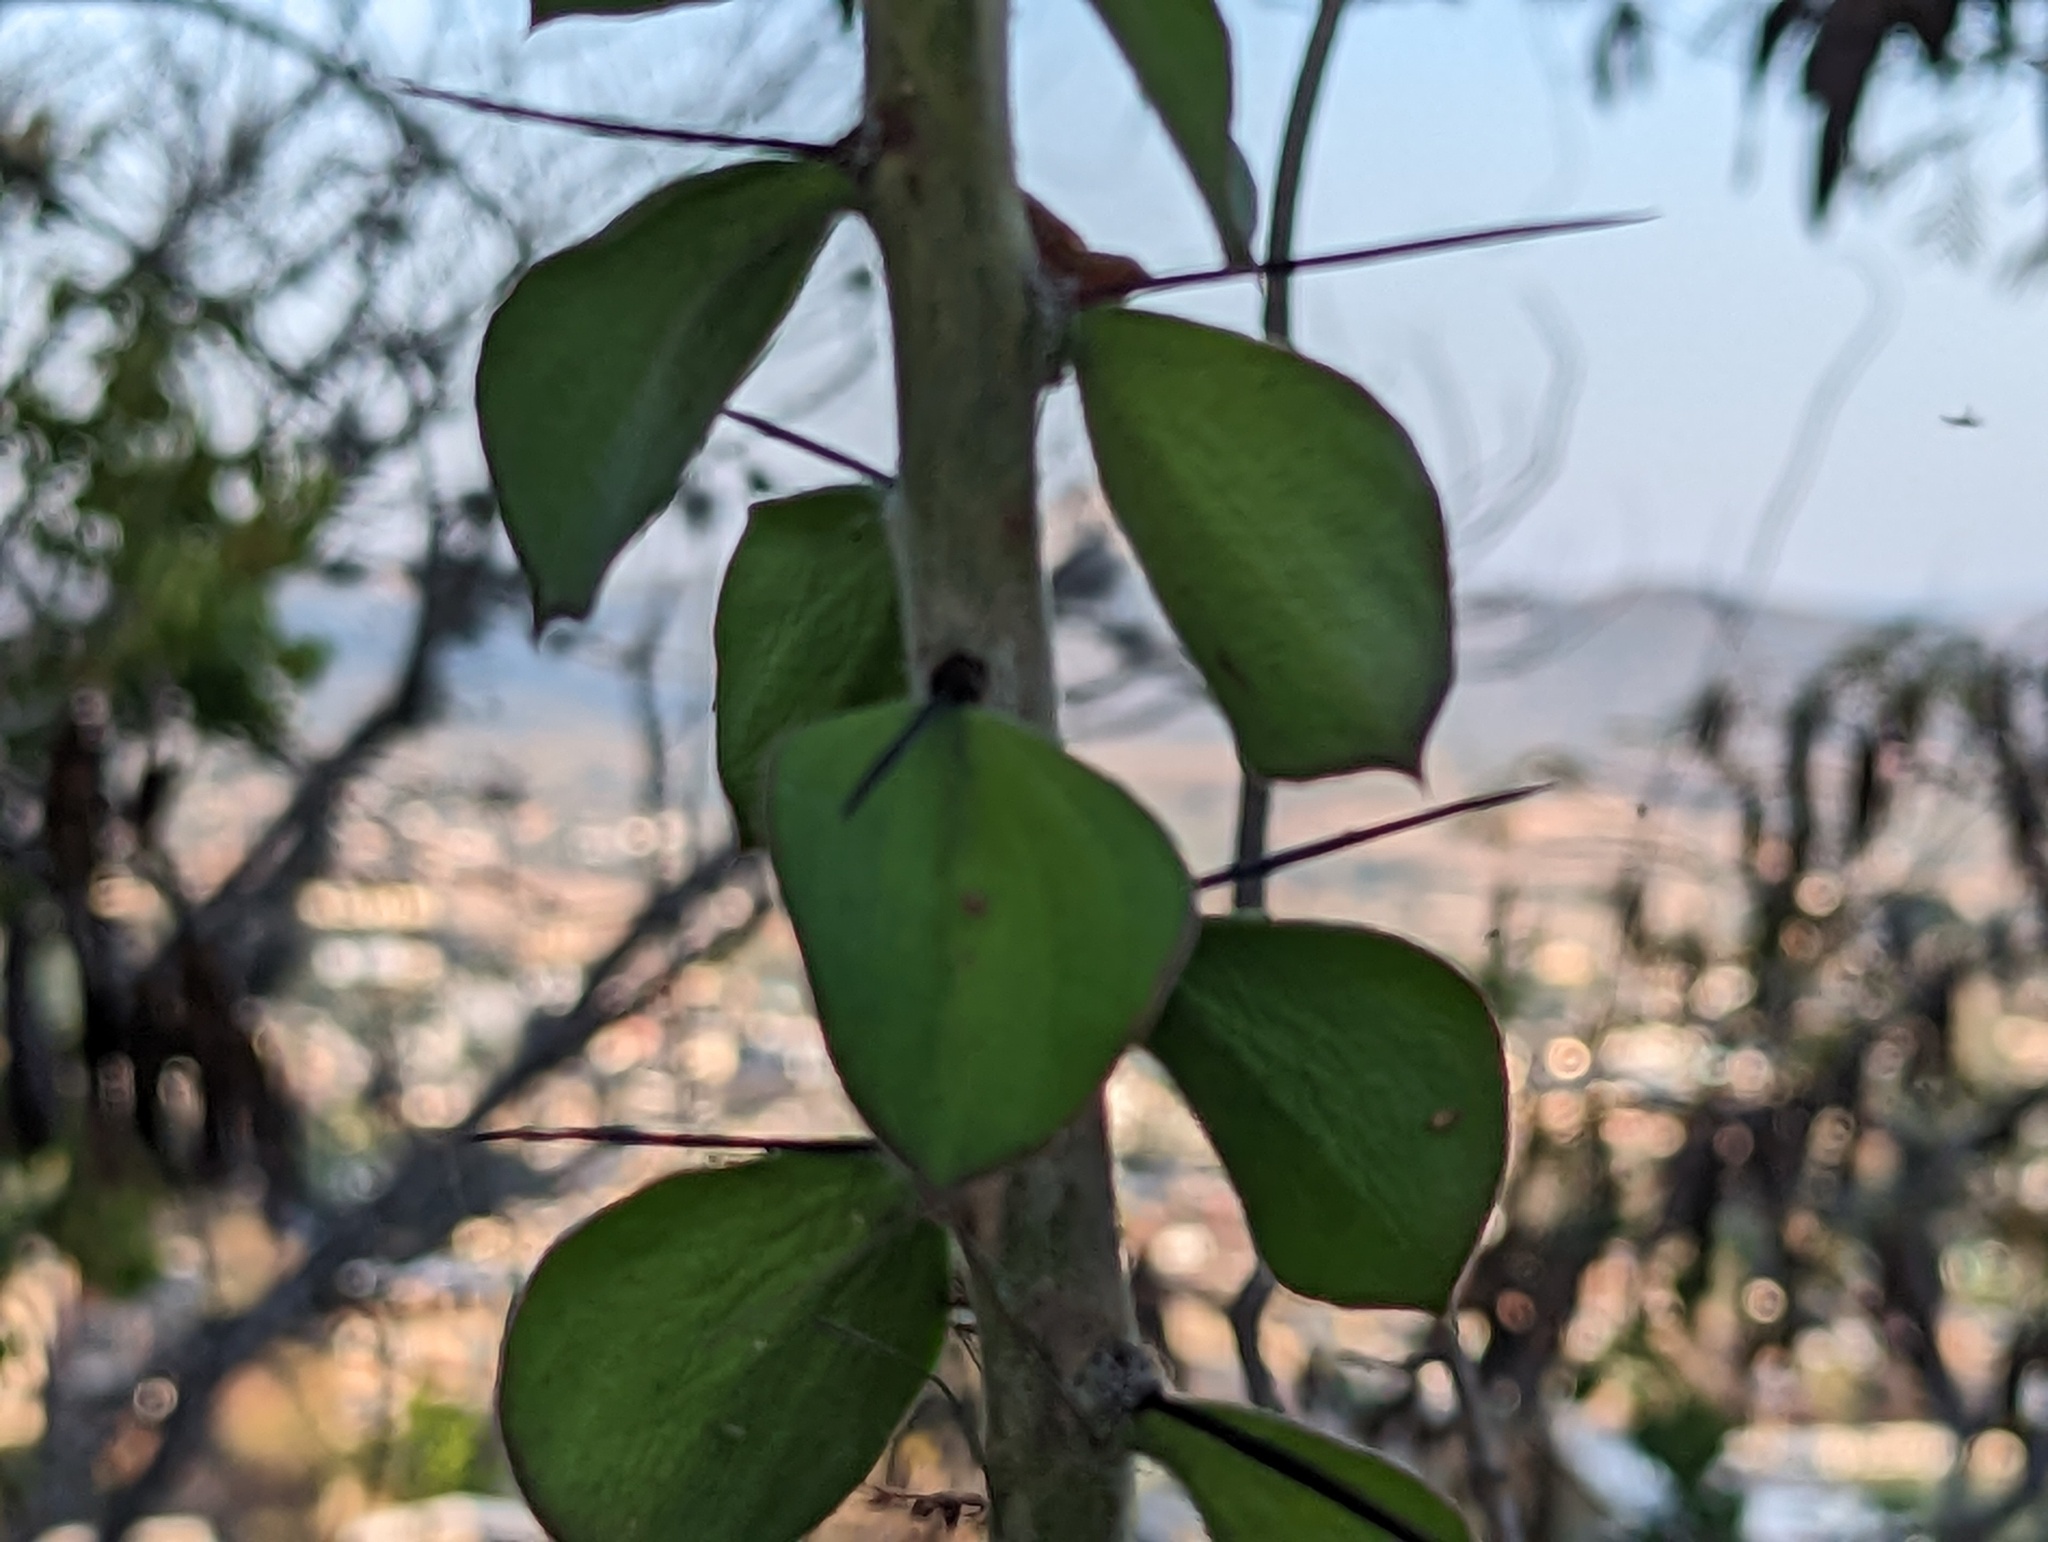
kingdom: Plantae
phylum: Tracheophyta
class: Magnoliopsida
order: Caryophyllales
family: Cactaceae
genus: Pereskiopsis
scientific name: Pereskiopsis diguetii
